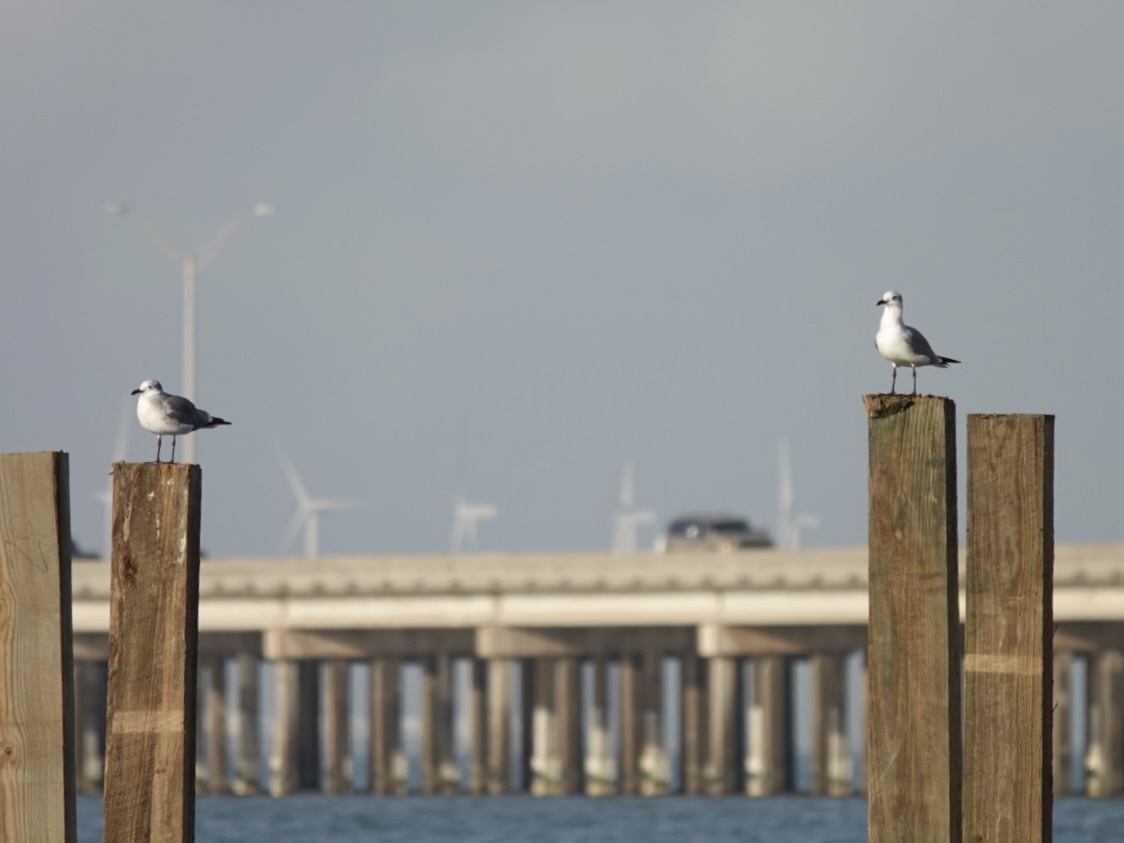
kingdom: Animalia
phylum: Chordata
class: Aves
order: Charadriiformes
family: Laridae
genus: Leucophaeus
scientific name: Leucophaeus atricilla
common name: Laughing gull
